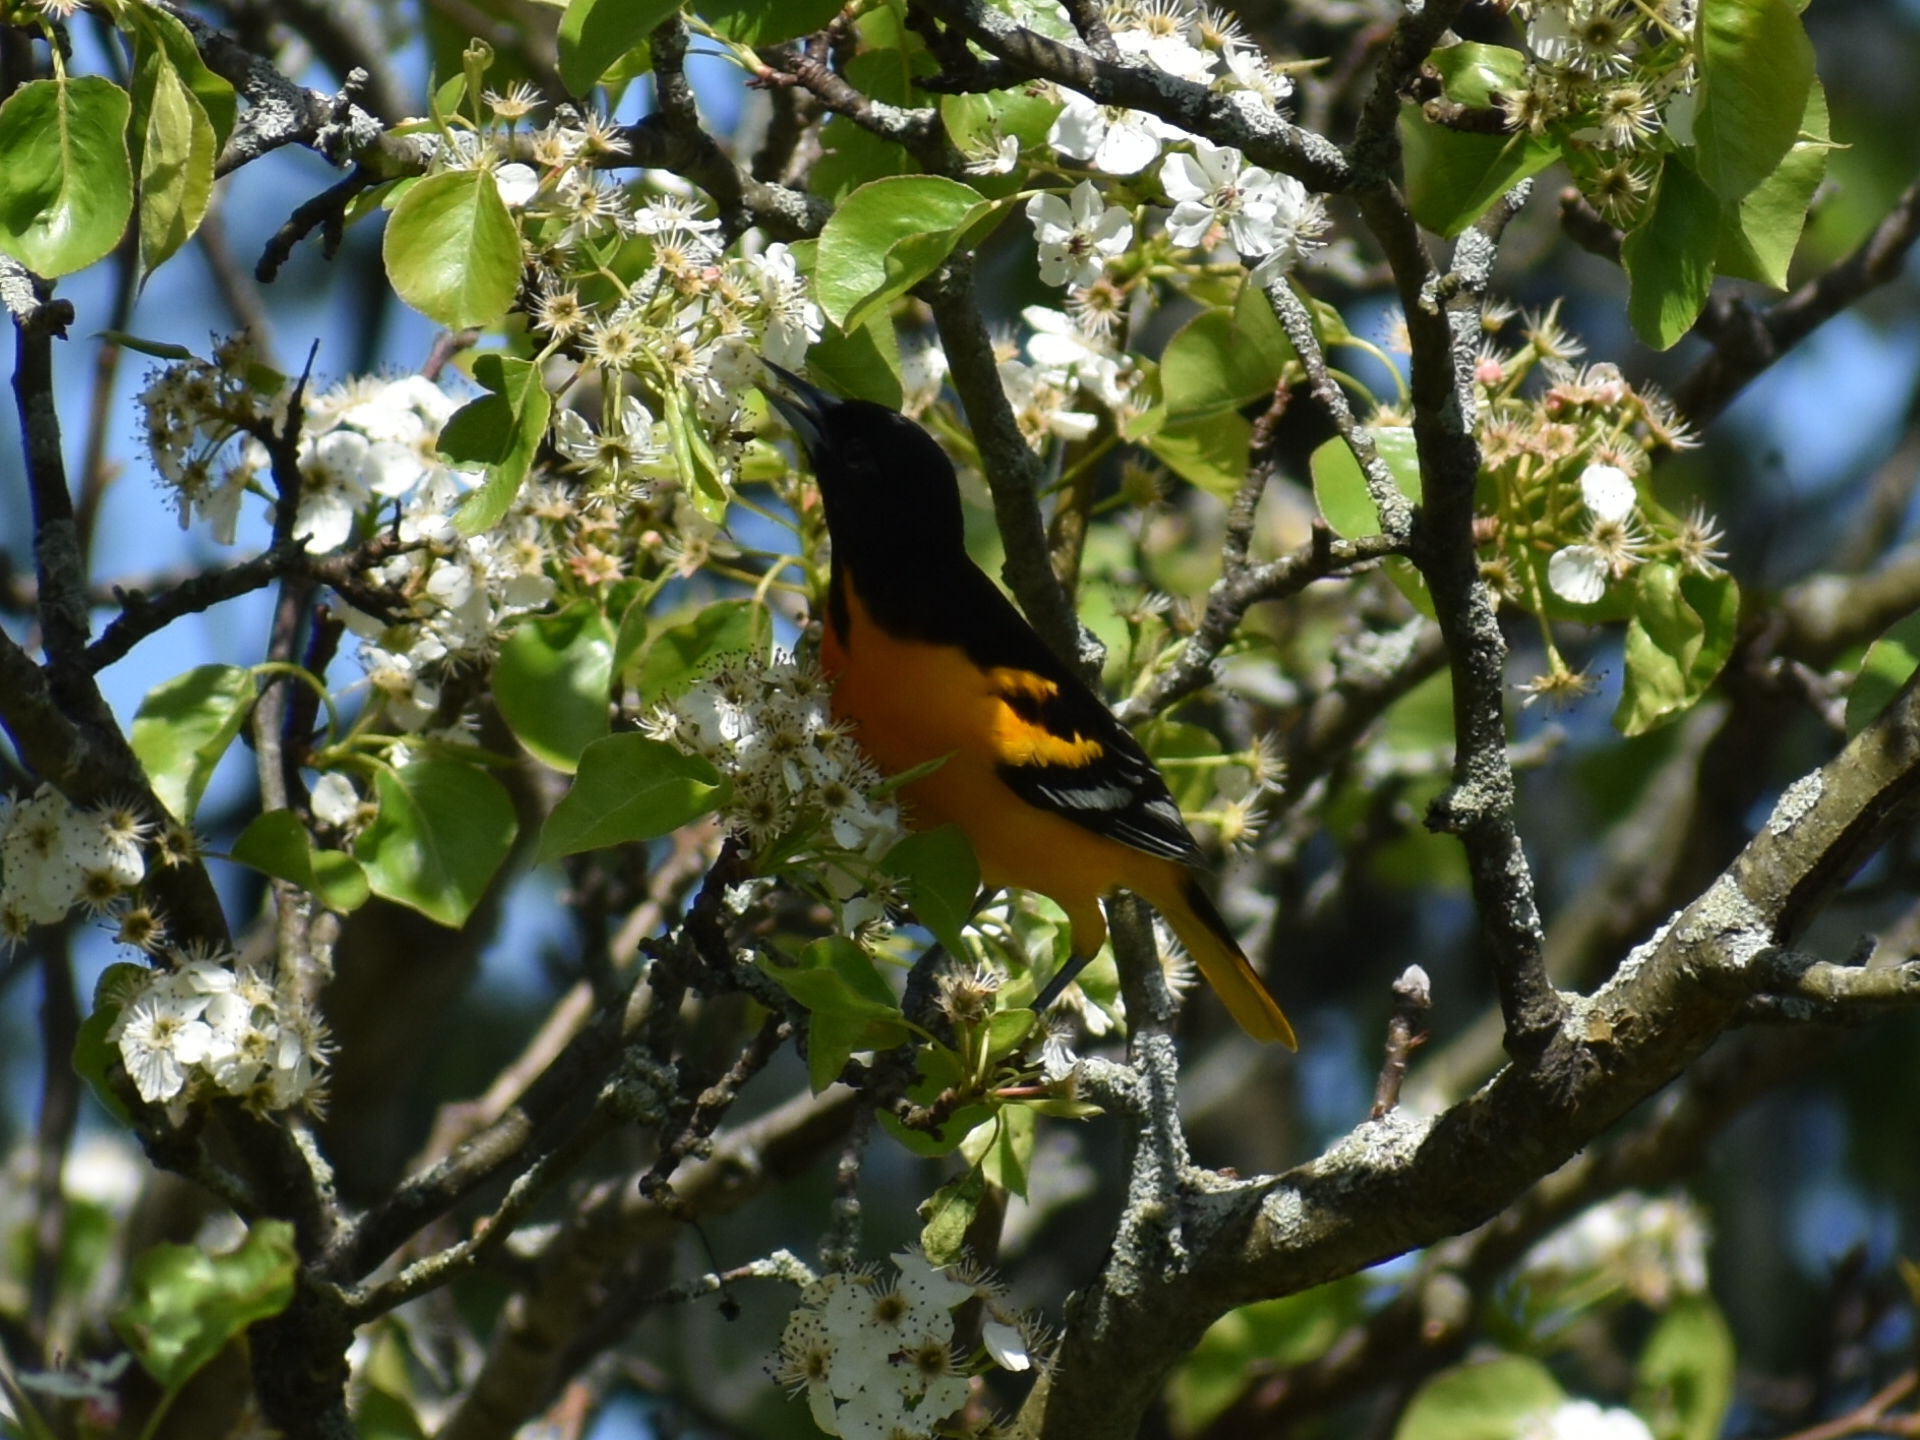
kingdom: Animalia
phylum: Chordata
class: Aves
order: Passeriformes
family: Icteridae
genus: Icterus
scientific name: Icterus galbula
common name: Baltimore oriole
